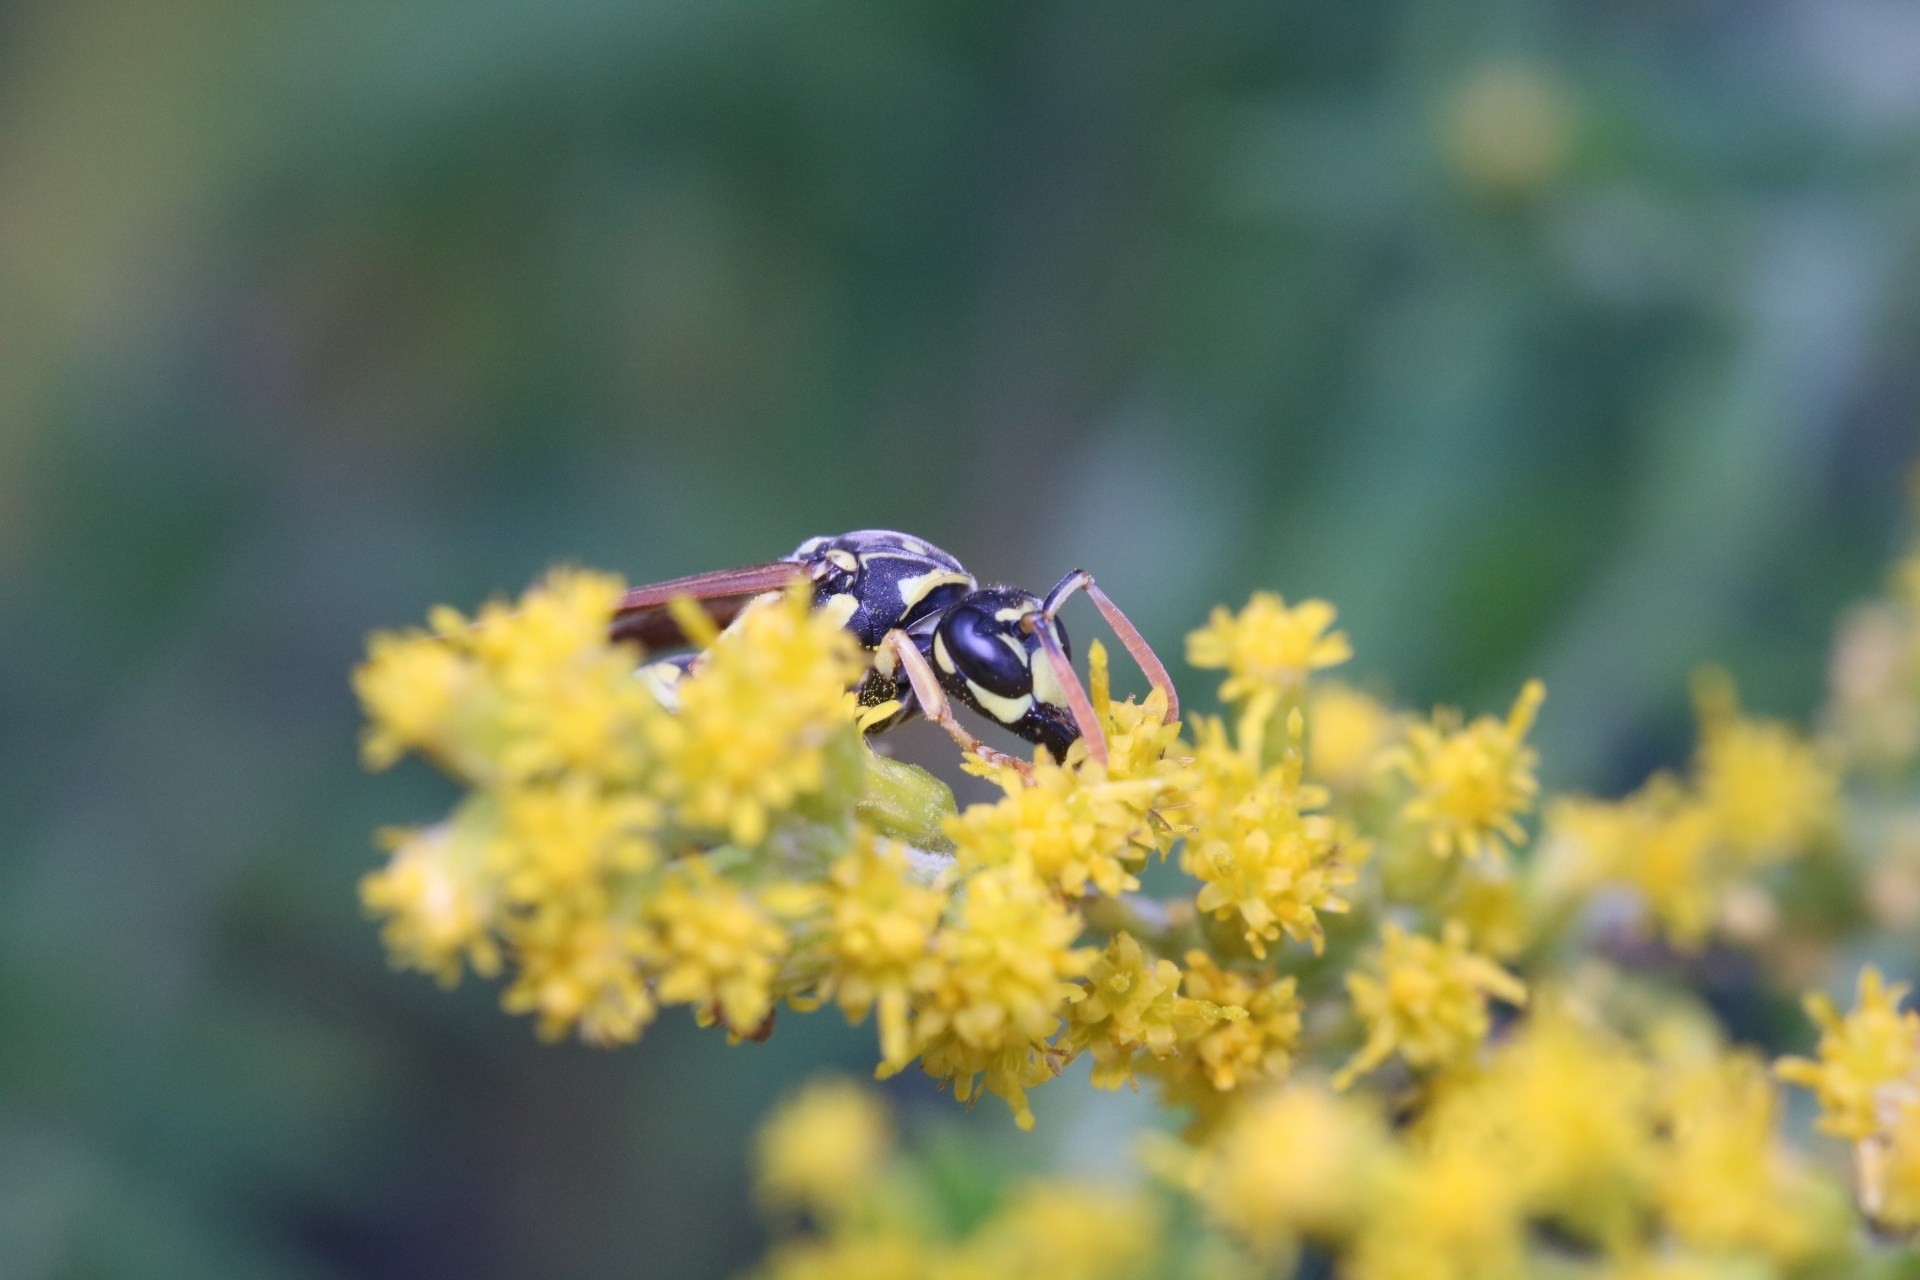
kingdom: Animalia
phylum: Arthropoda
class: Insecta
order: Hymenoptera
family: Eumenidae
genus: Polistes
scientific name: Polistes dominula
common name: Paper wasp
